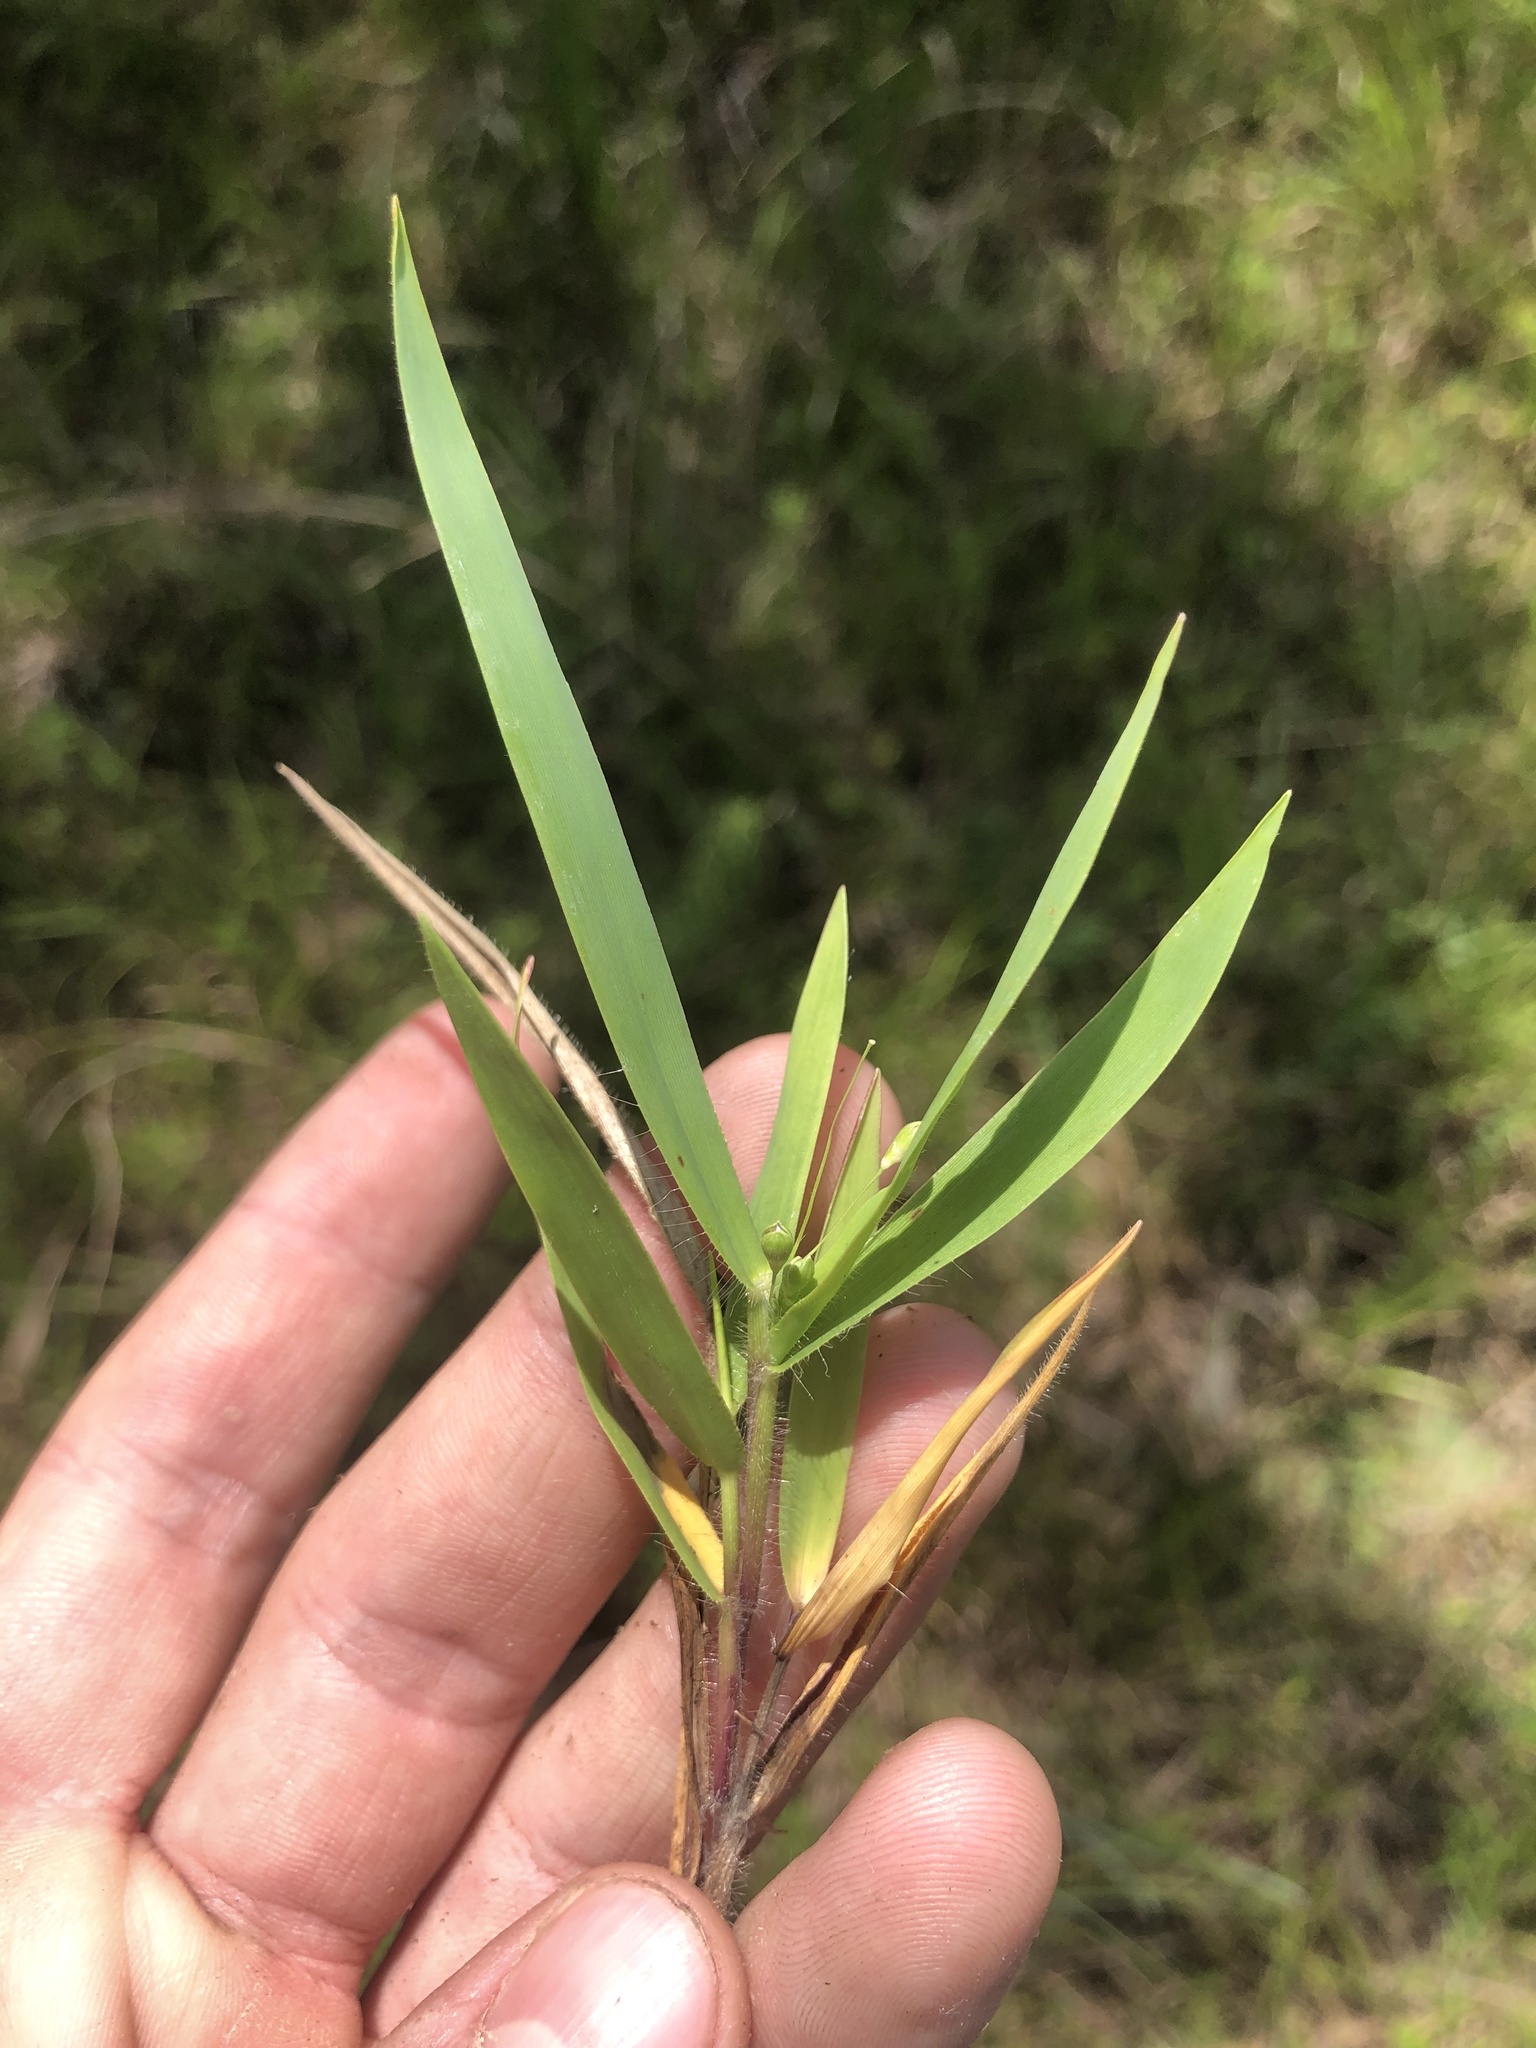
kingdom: Plantae
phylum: Tracheophyta
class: Liliopsida
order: Poales
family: Poaceae
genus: Dichanthelium
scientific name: Dichanthelium scribnerianum
